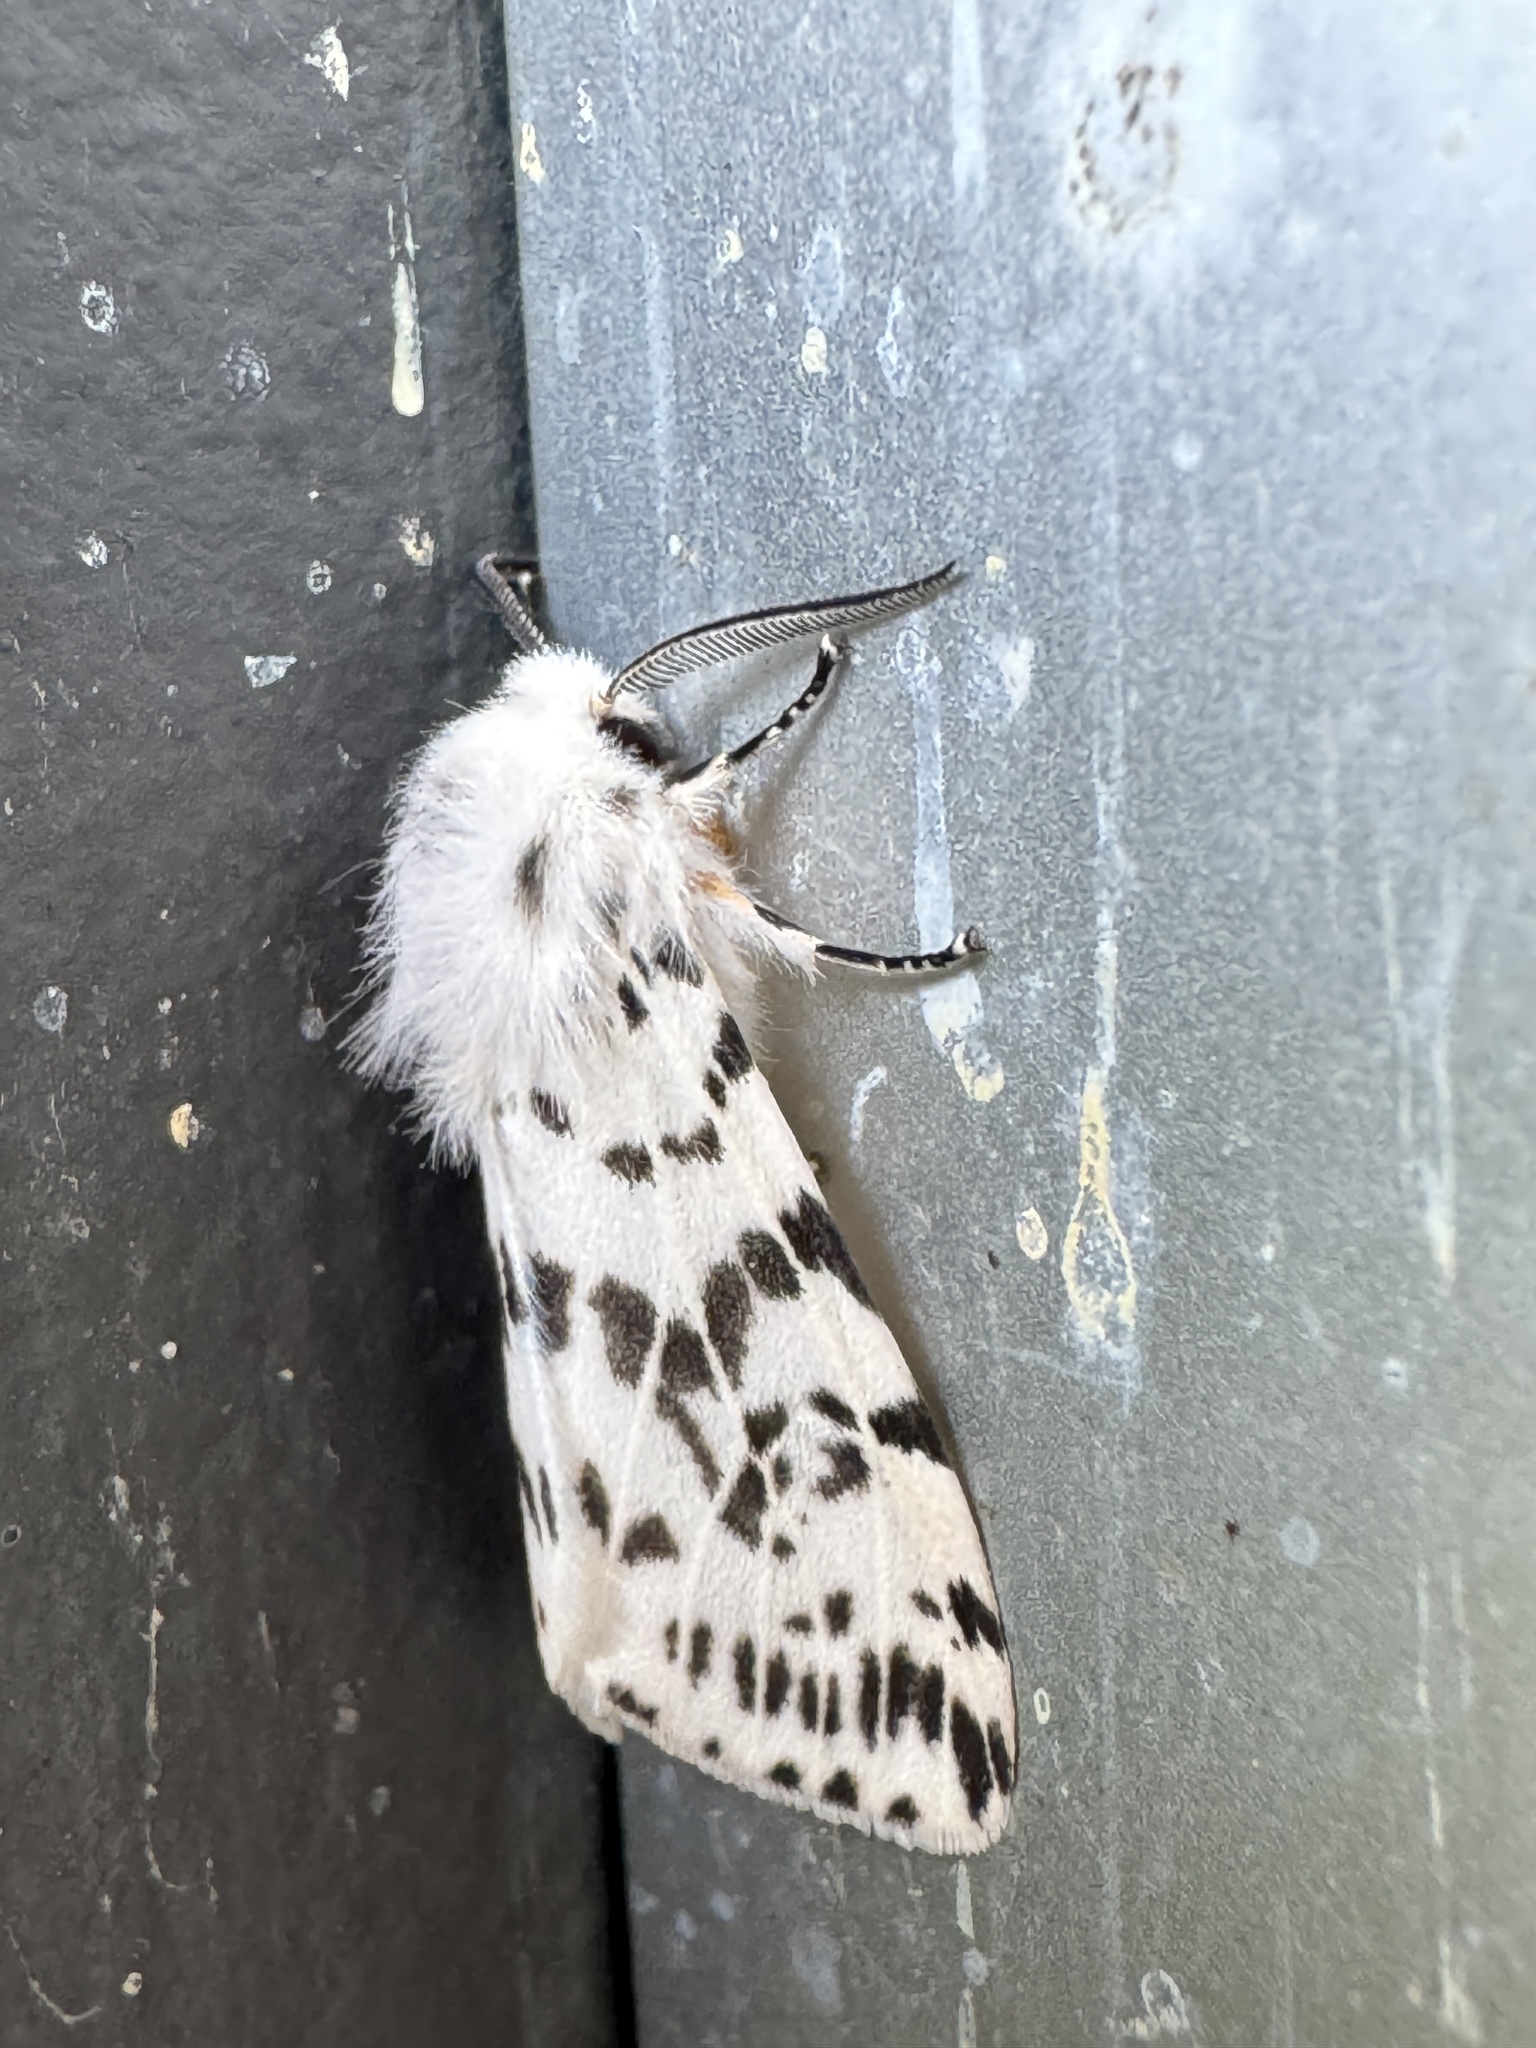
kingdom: Animalia
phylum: Arthropoda
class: Insecta
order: Lepidoptera
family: Erebidae
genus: Hyphantria
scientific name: Hyphantria cunea
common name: American white moth
